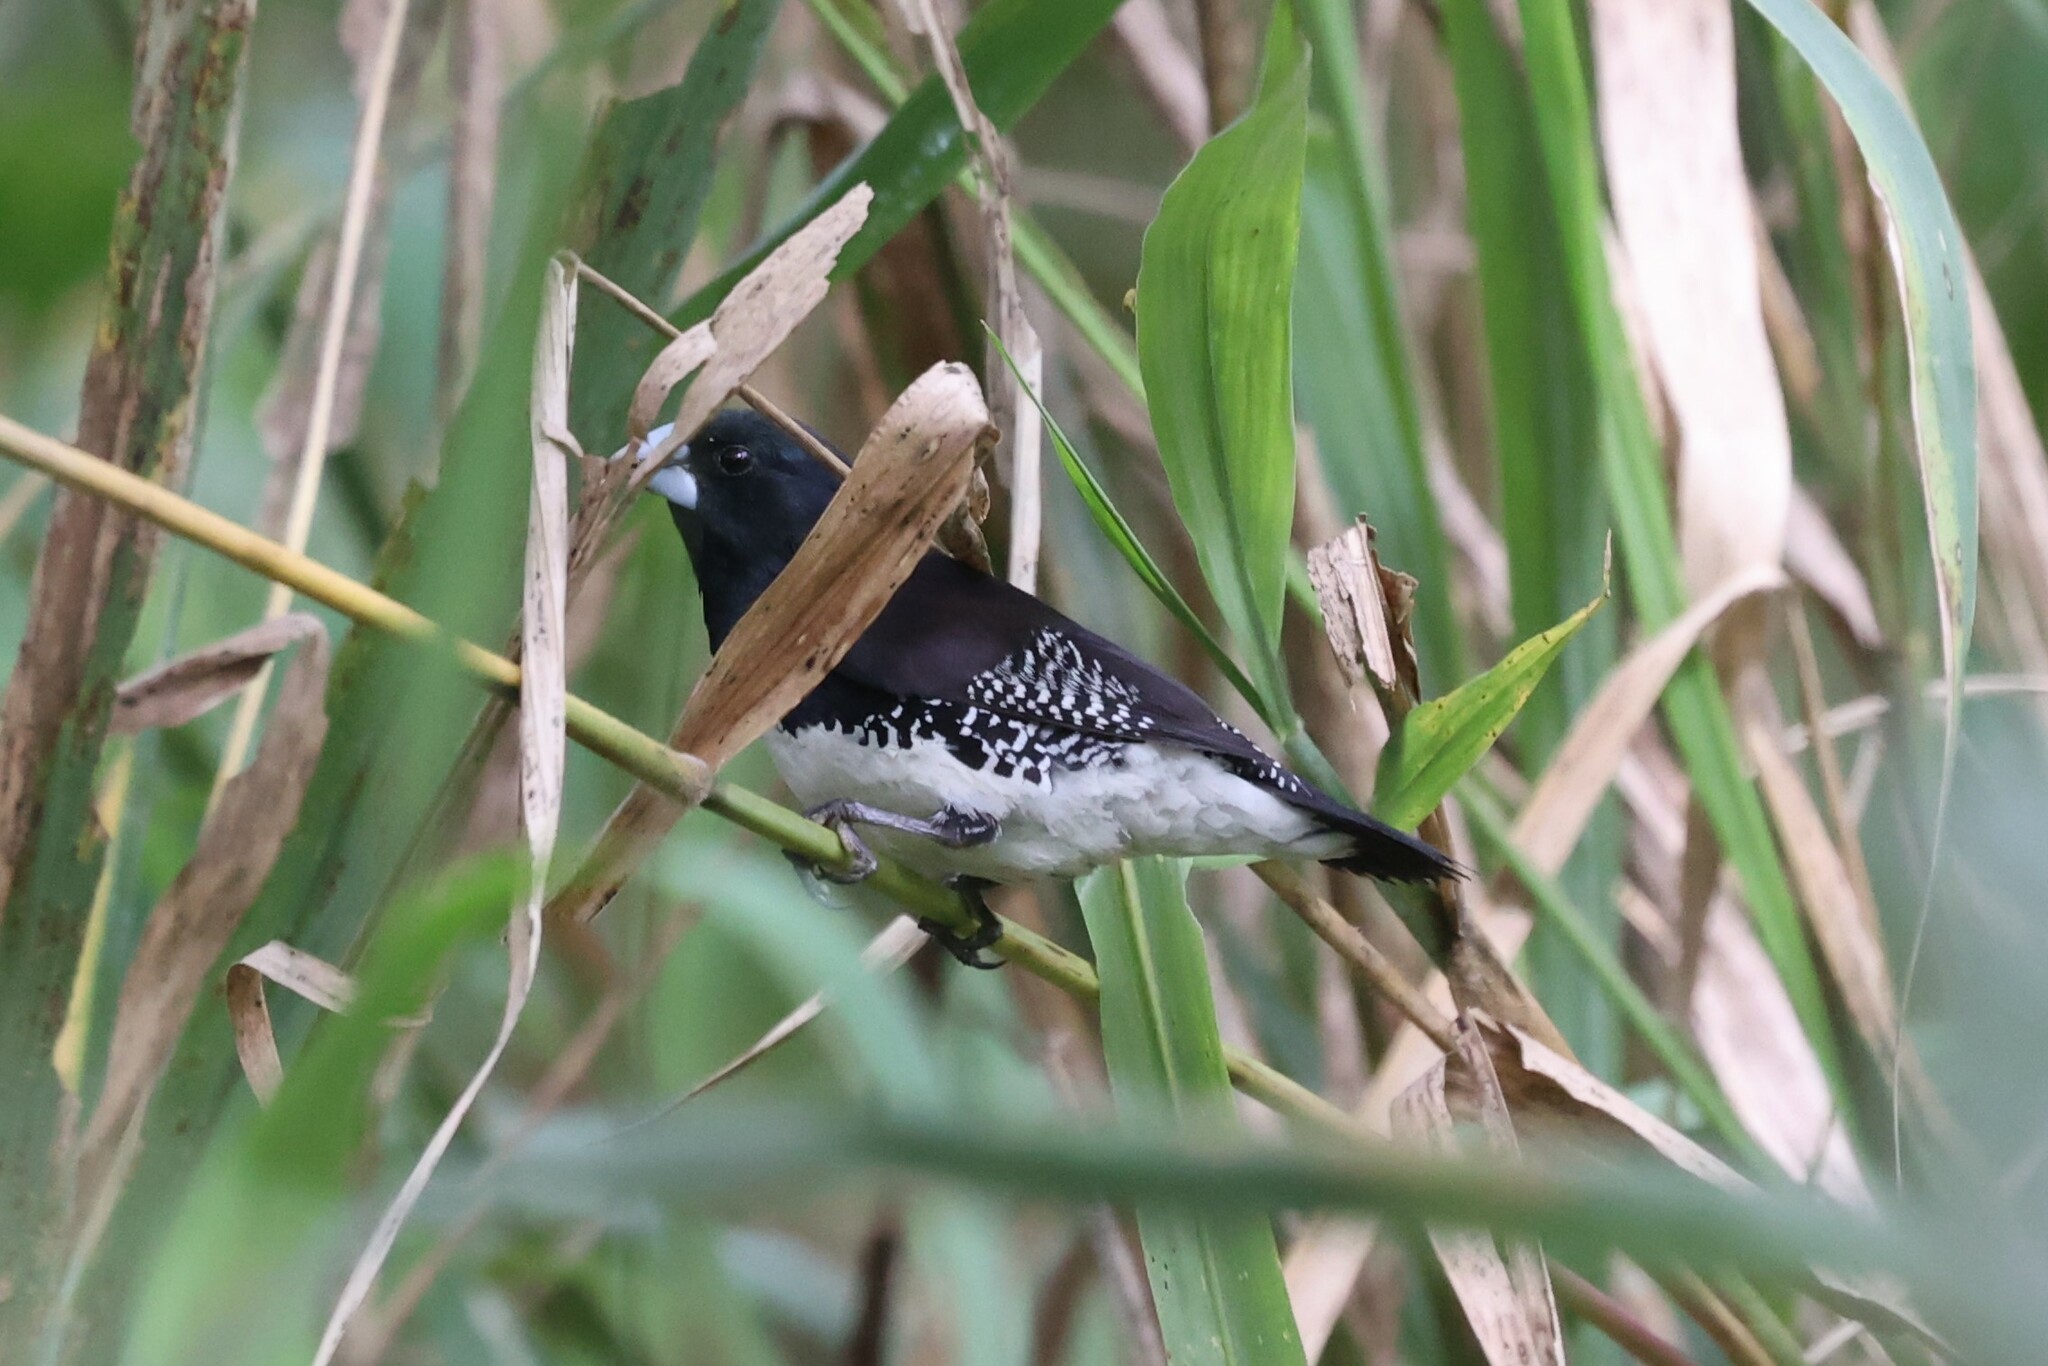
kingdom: Animalia
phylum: Chordata
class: Aves
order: Passeriformes
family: Estrildidae
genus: Lonchura
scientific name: Lonchura bicolor
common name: Black-and-white mannikin
